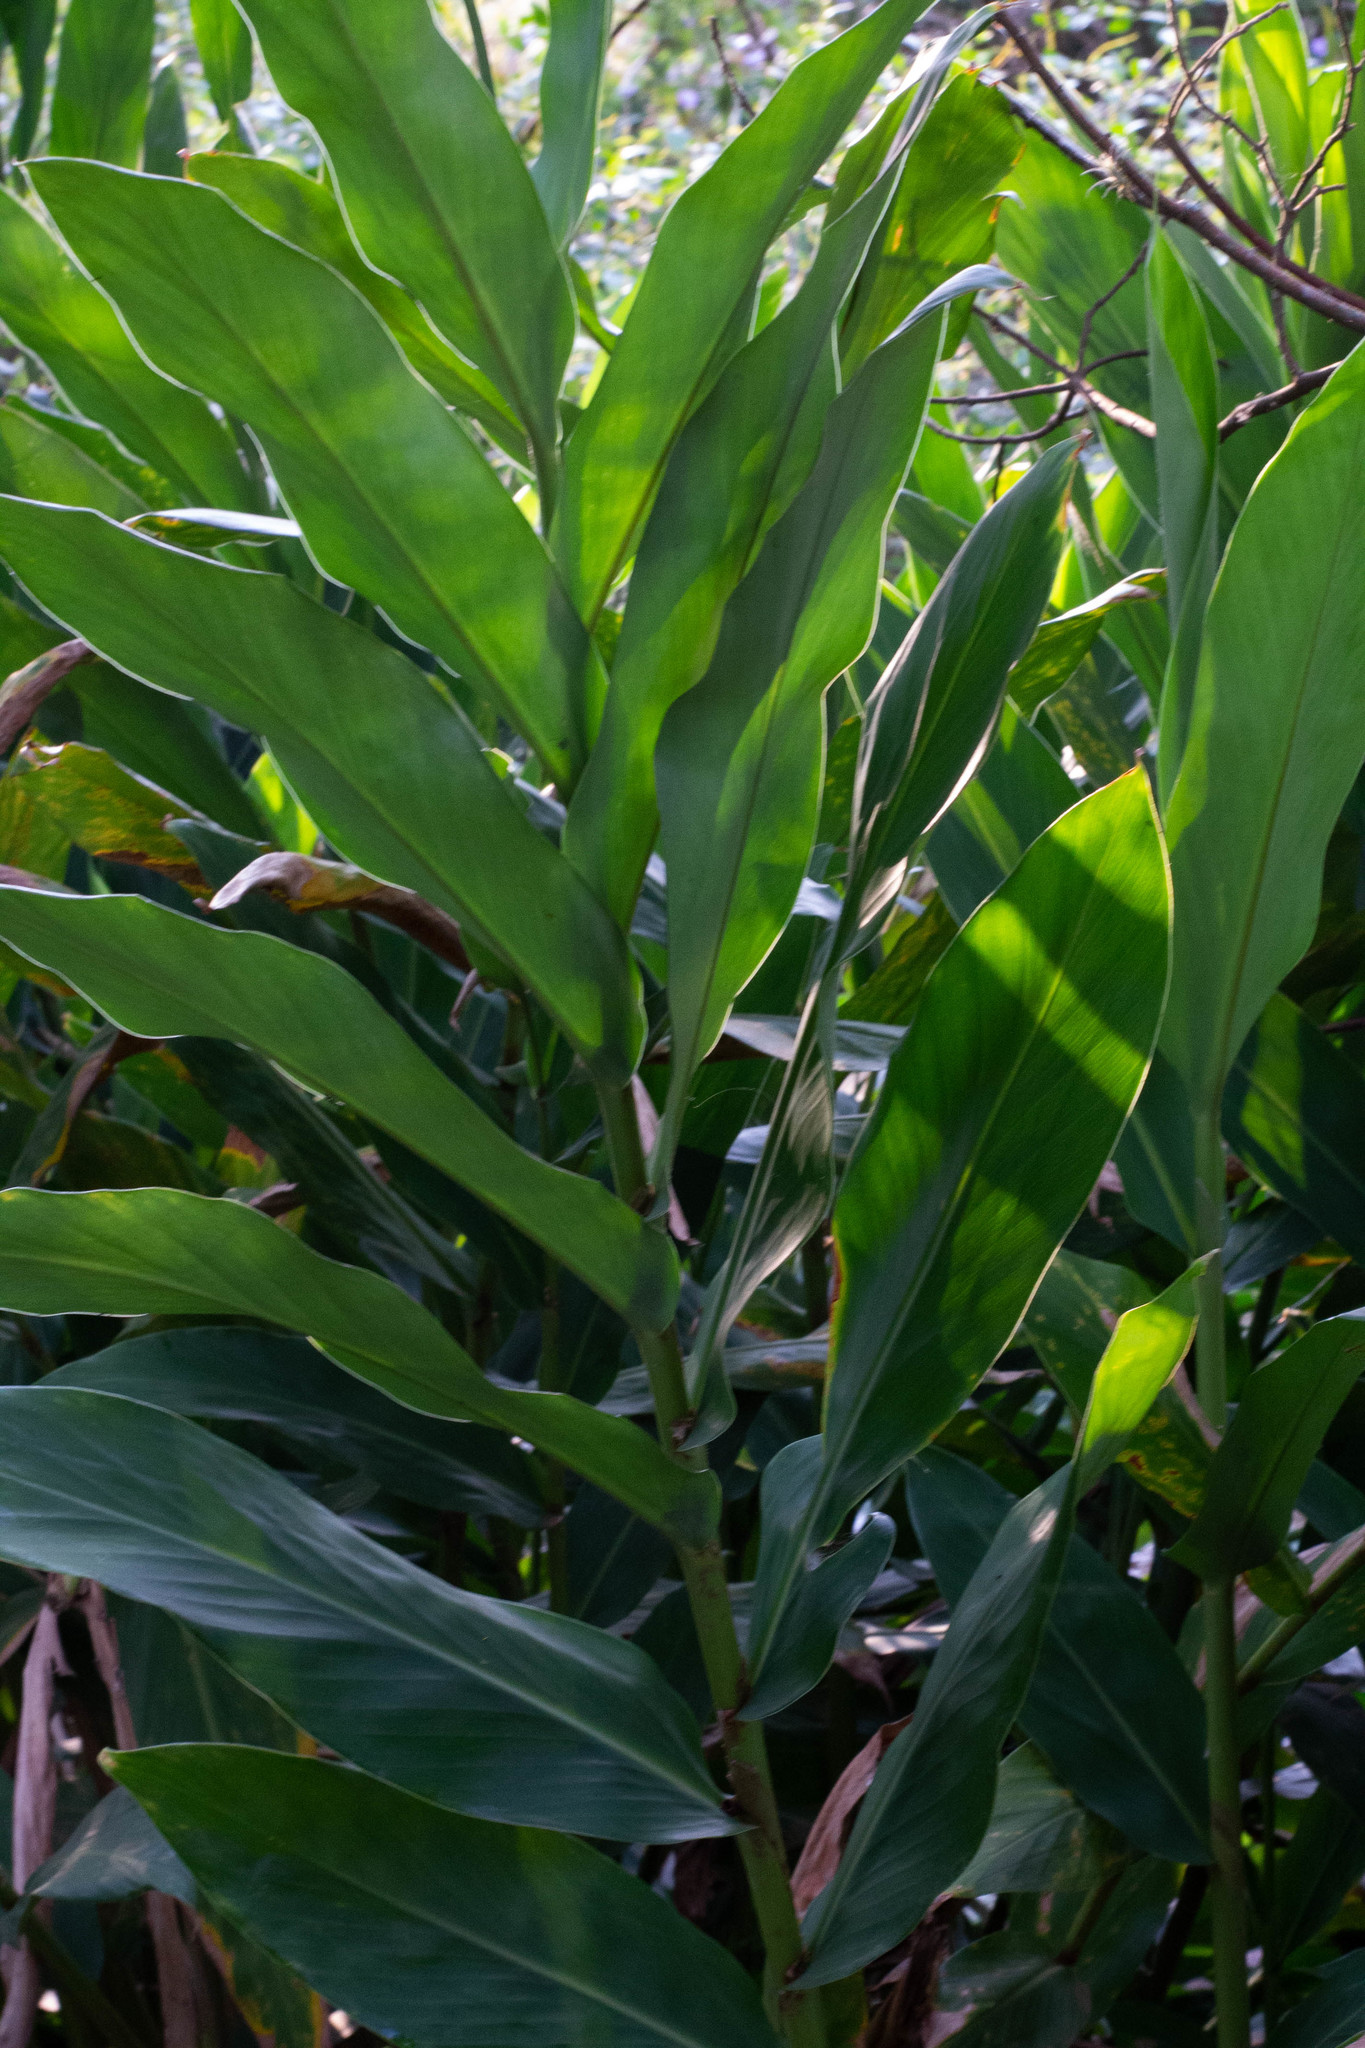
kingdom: Plantae
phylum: Tracheophyta
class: Liliopsida
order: Zingiberales
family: Zingiberaceae
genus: Hedychium
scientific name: Hedychium coronarium
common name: White garland-lily
